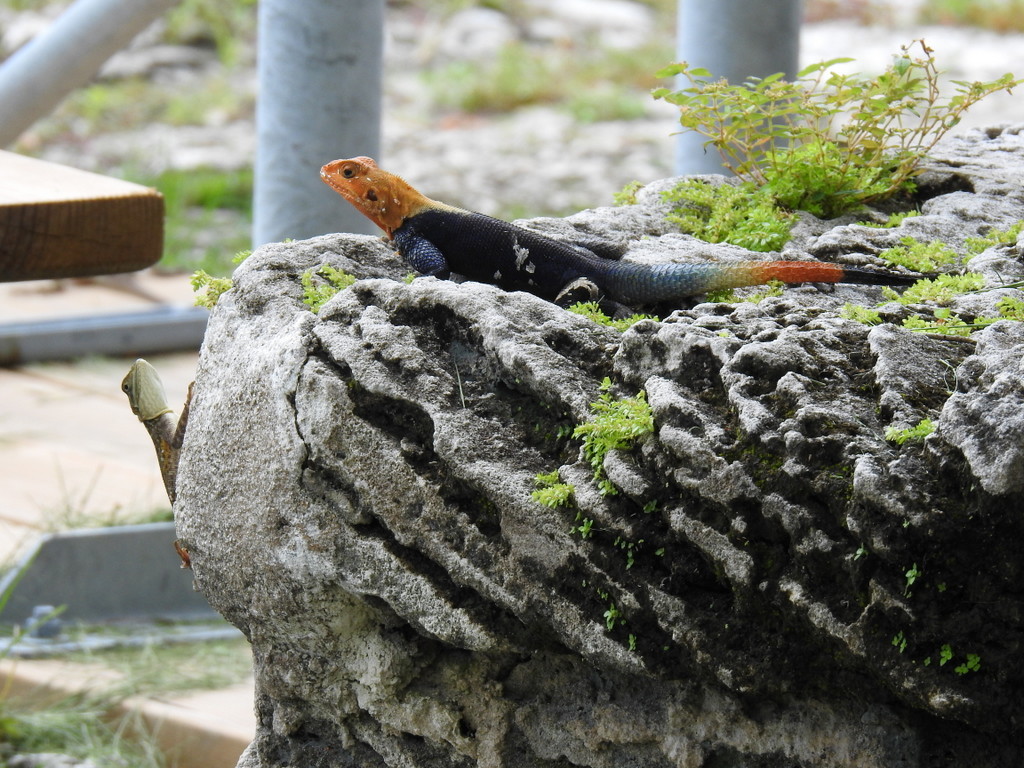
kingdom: Animalia
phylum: Chordata
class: Squamata
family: Agamidae
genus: Agama
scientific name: Agama picticauda
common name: Red-headed agama
